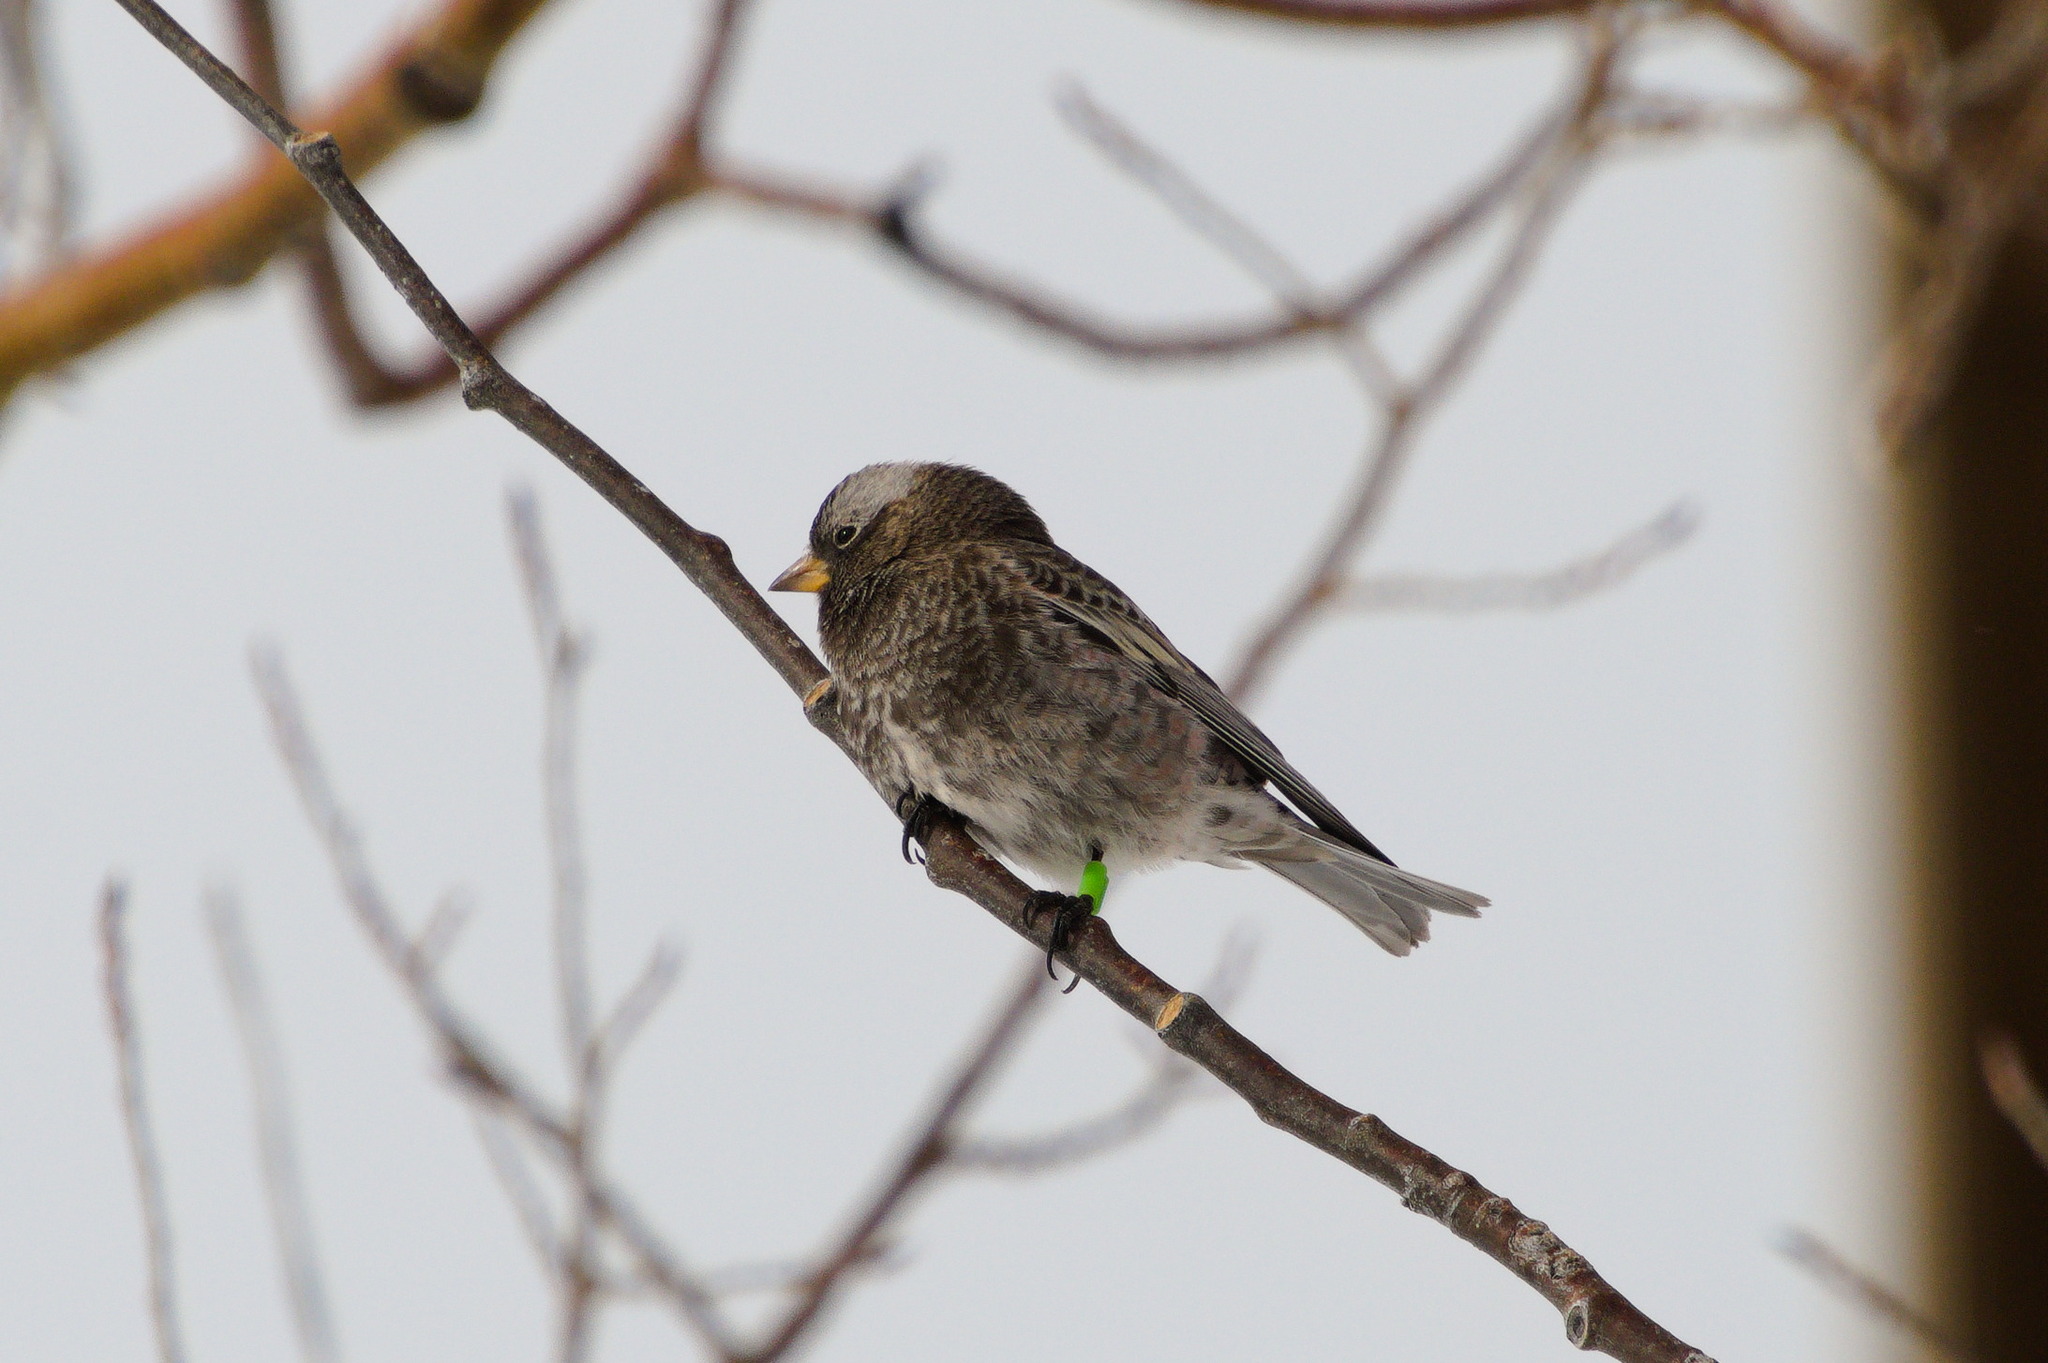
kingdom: Animalia
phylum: Chordata
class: Aves
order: Passeriformes
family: Fringillidae
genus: Leucosticte
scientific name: Leucosticte atrata
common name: Black rosy-finch
